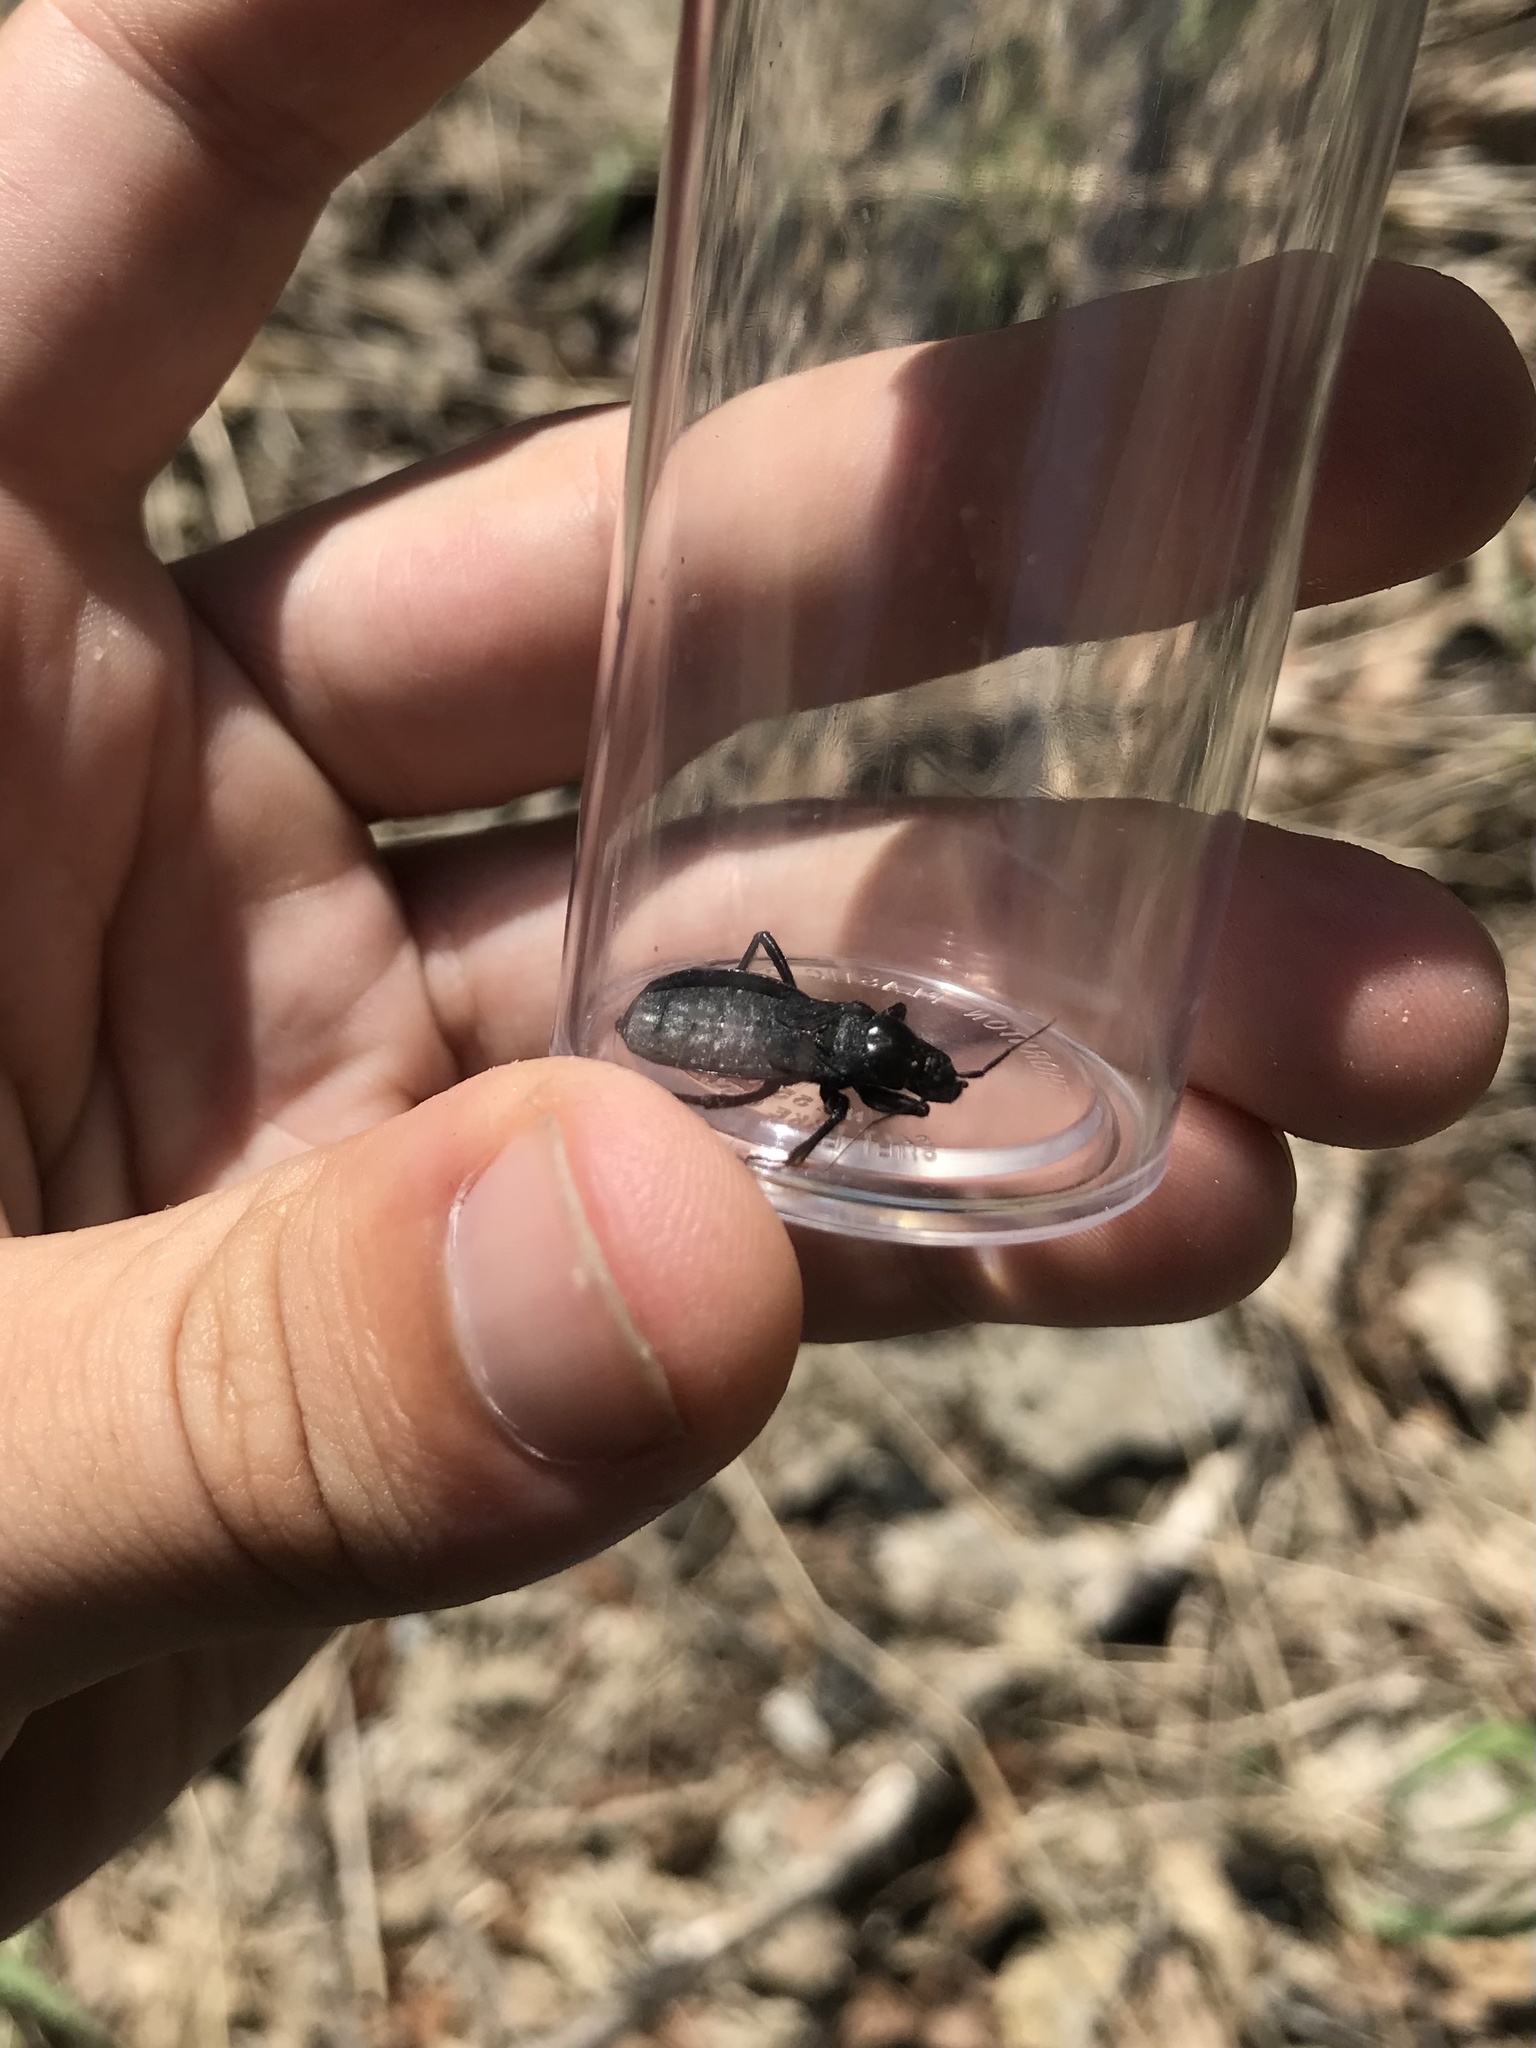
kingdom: Animalia
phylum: Arthropoda
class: Insecta
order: Hemiptera
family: Reduviidae
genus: Melanolestes
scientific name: Melanolestes picipes
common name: Assassin bug
